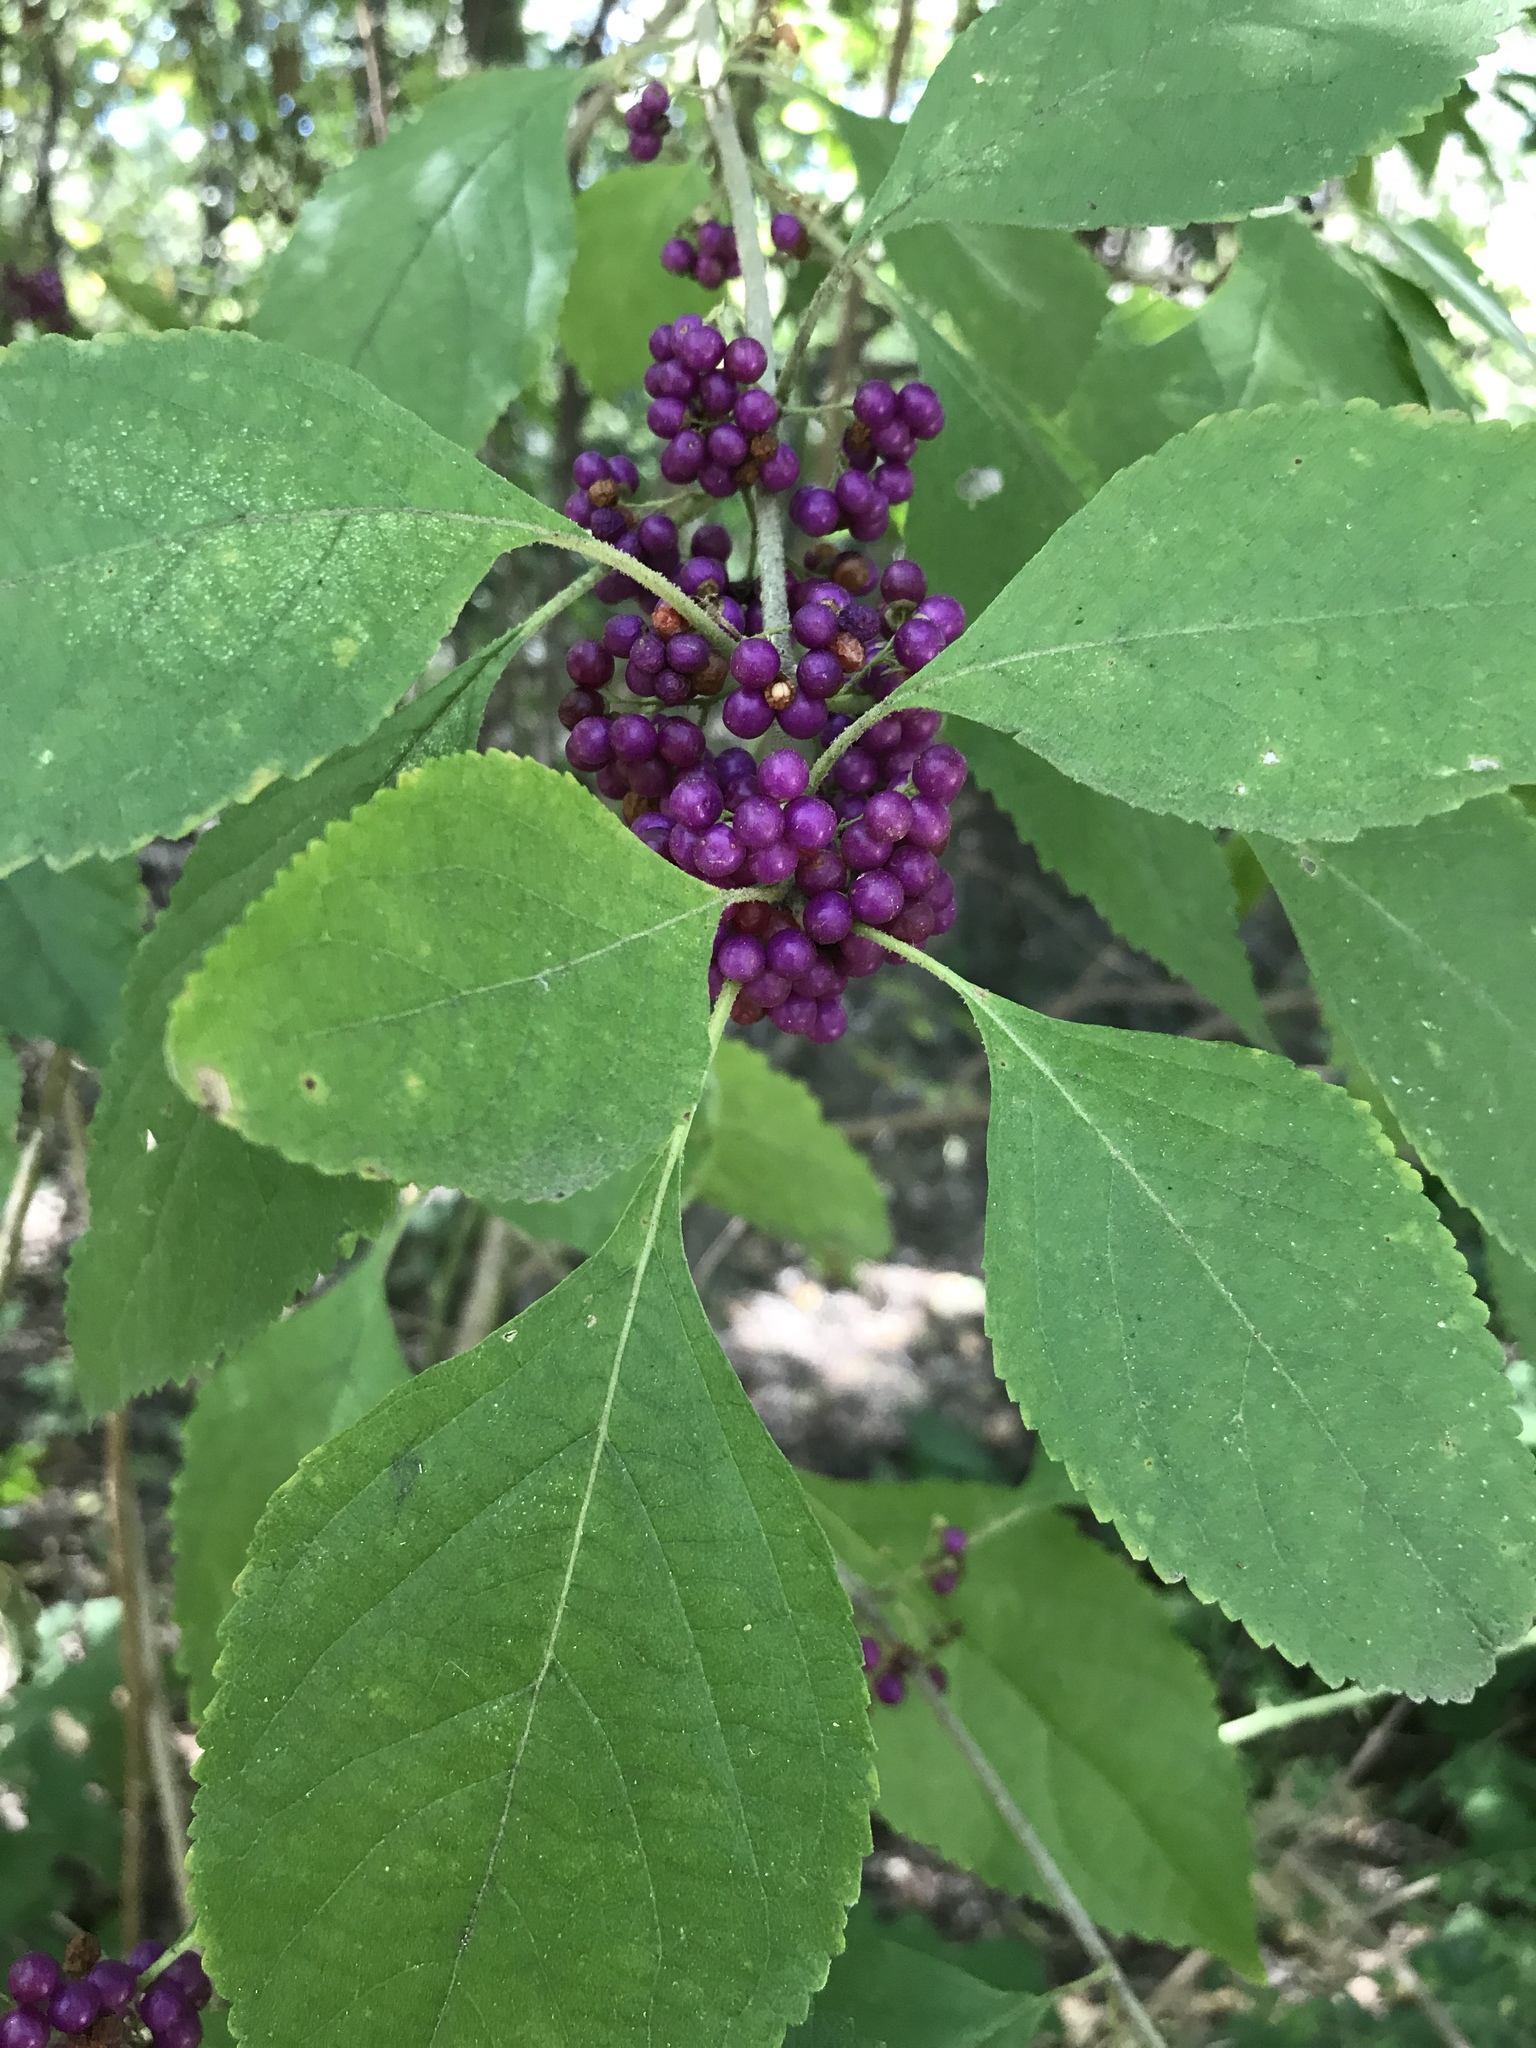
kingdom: Plantae
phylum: Tracheophyta
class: Magnoliopsida
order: Lamiales
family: Lamiaceae
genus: Callicarpa
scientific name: Callicarpa americana
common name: American beautyberry
